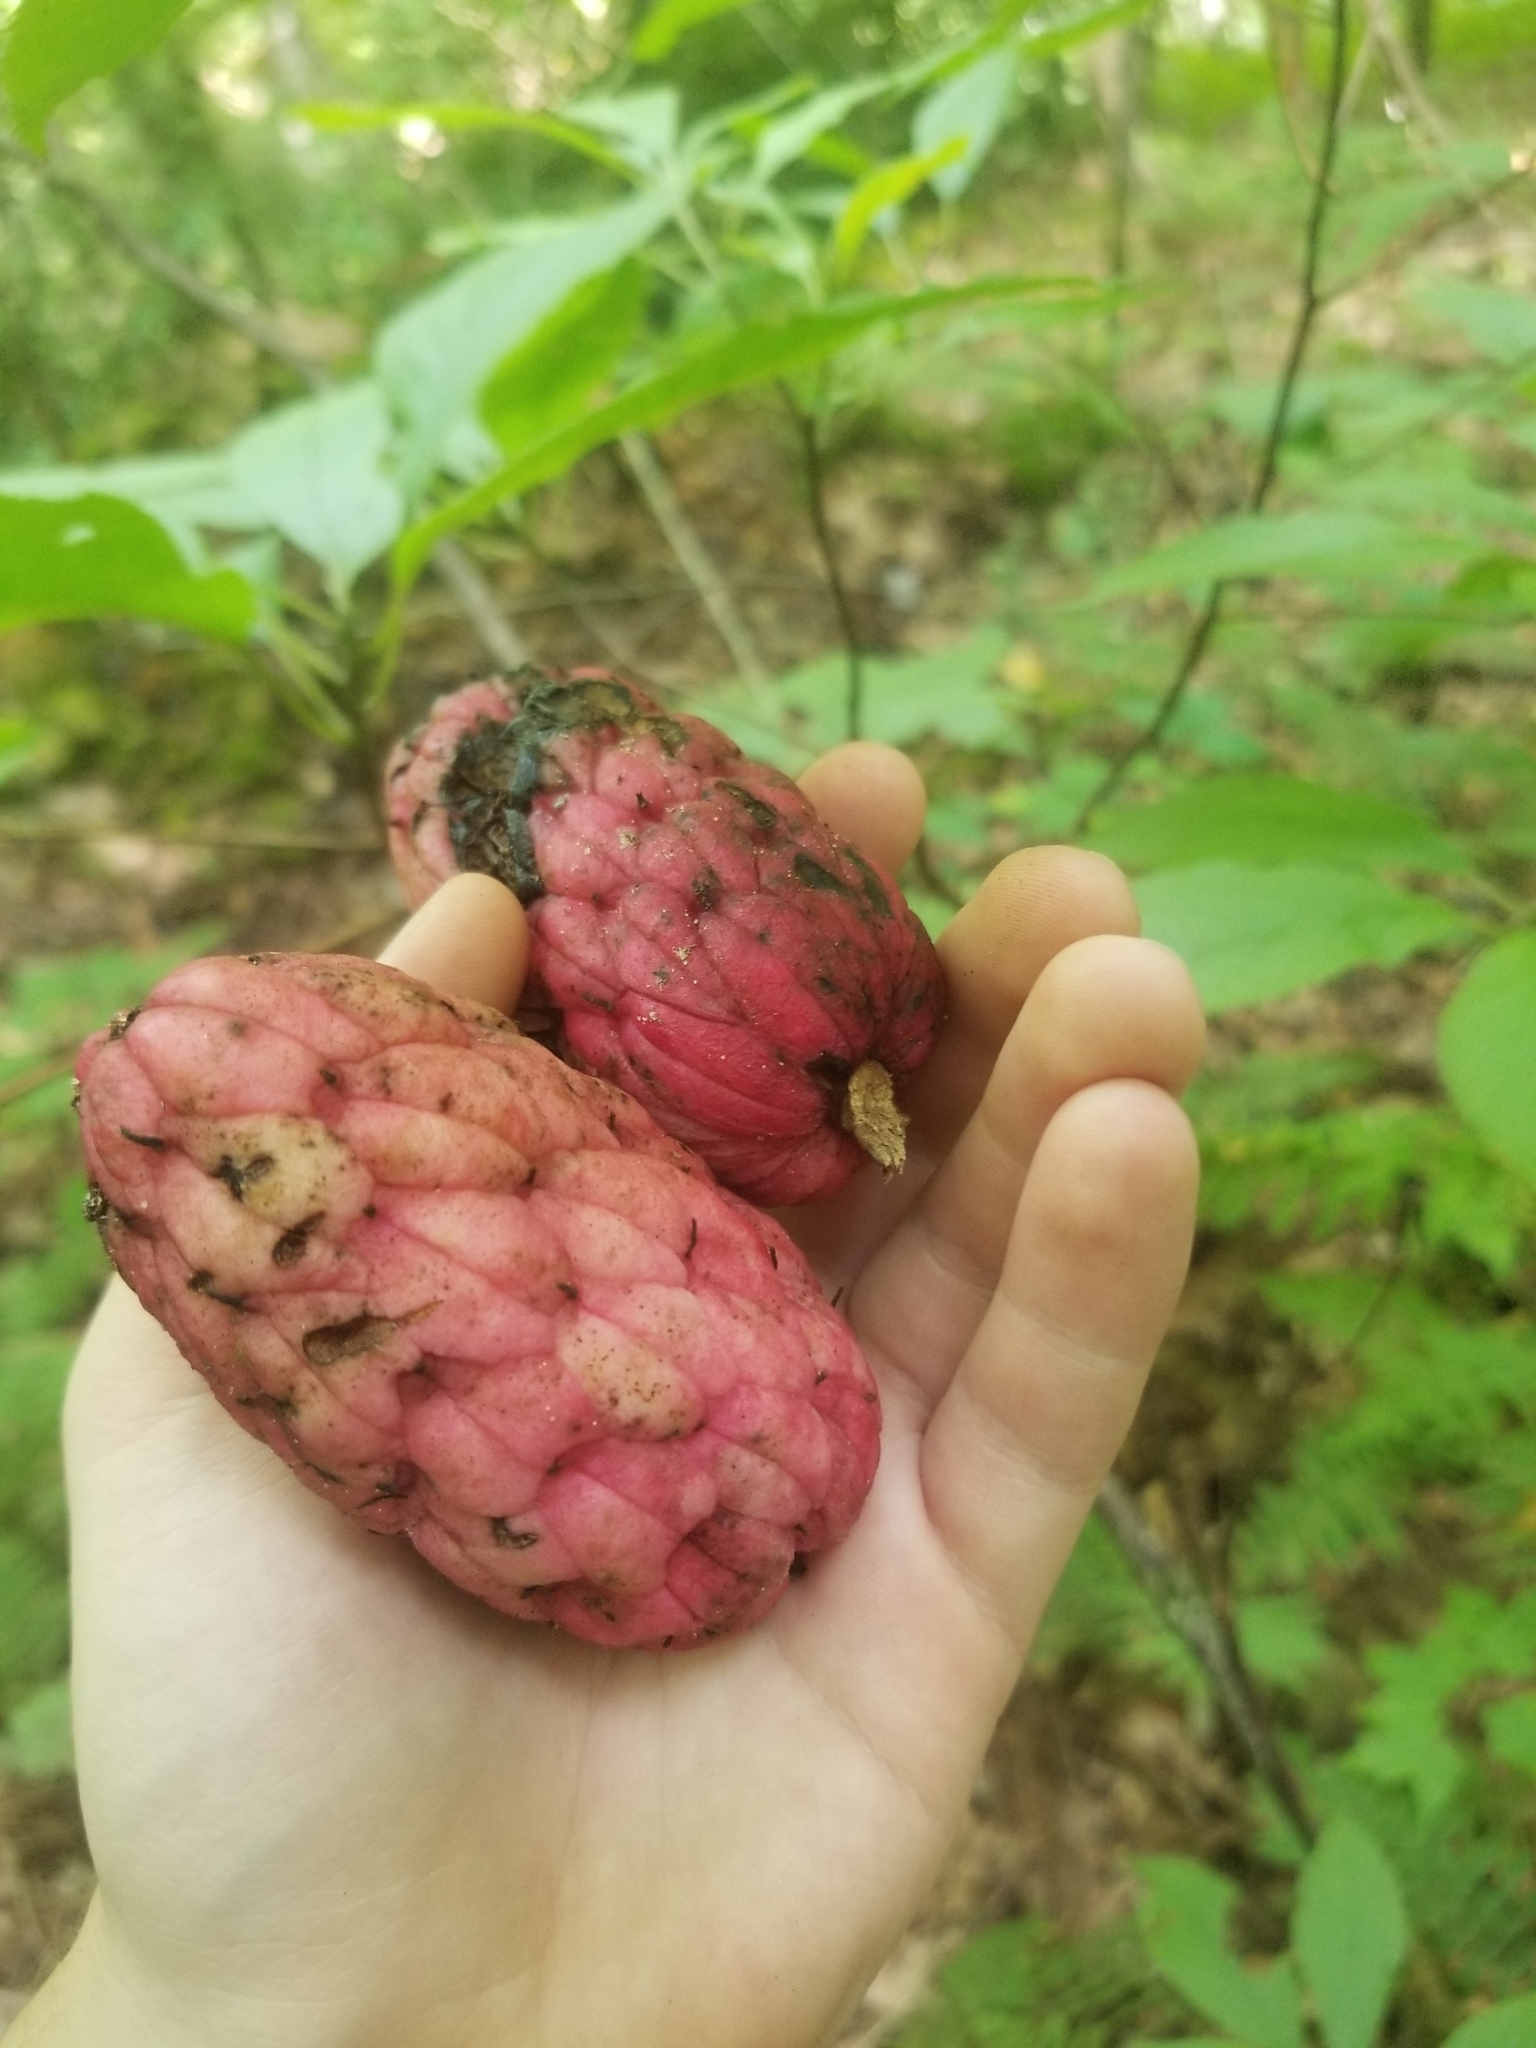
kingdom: Plantae
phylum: Tracheophyta
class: Magnoliopsida
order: Magnoliales
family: Magnoliaceae
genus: Magnolia
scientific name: Magnolia tripetala
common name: Umbrella magnolia
